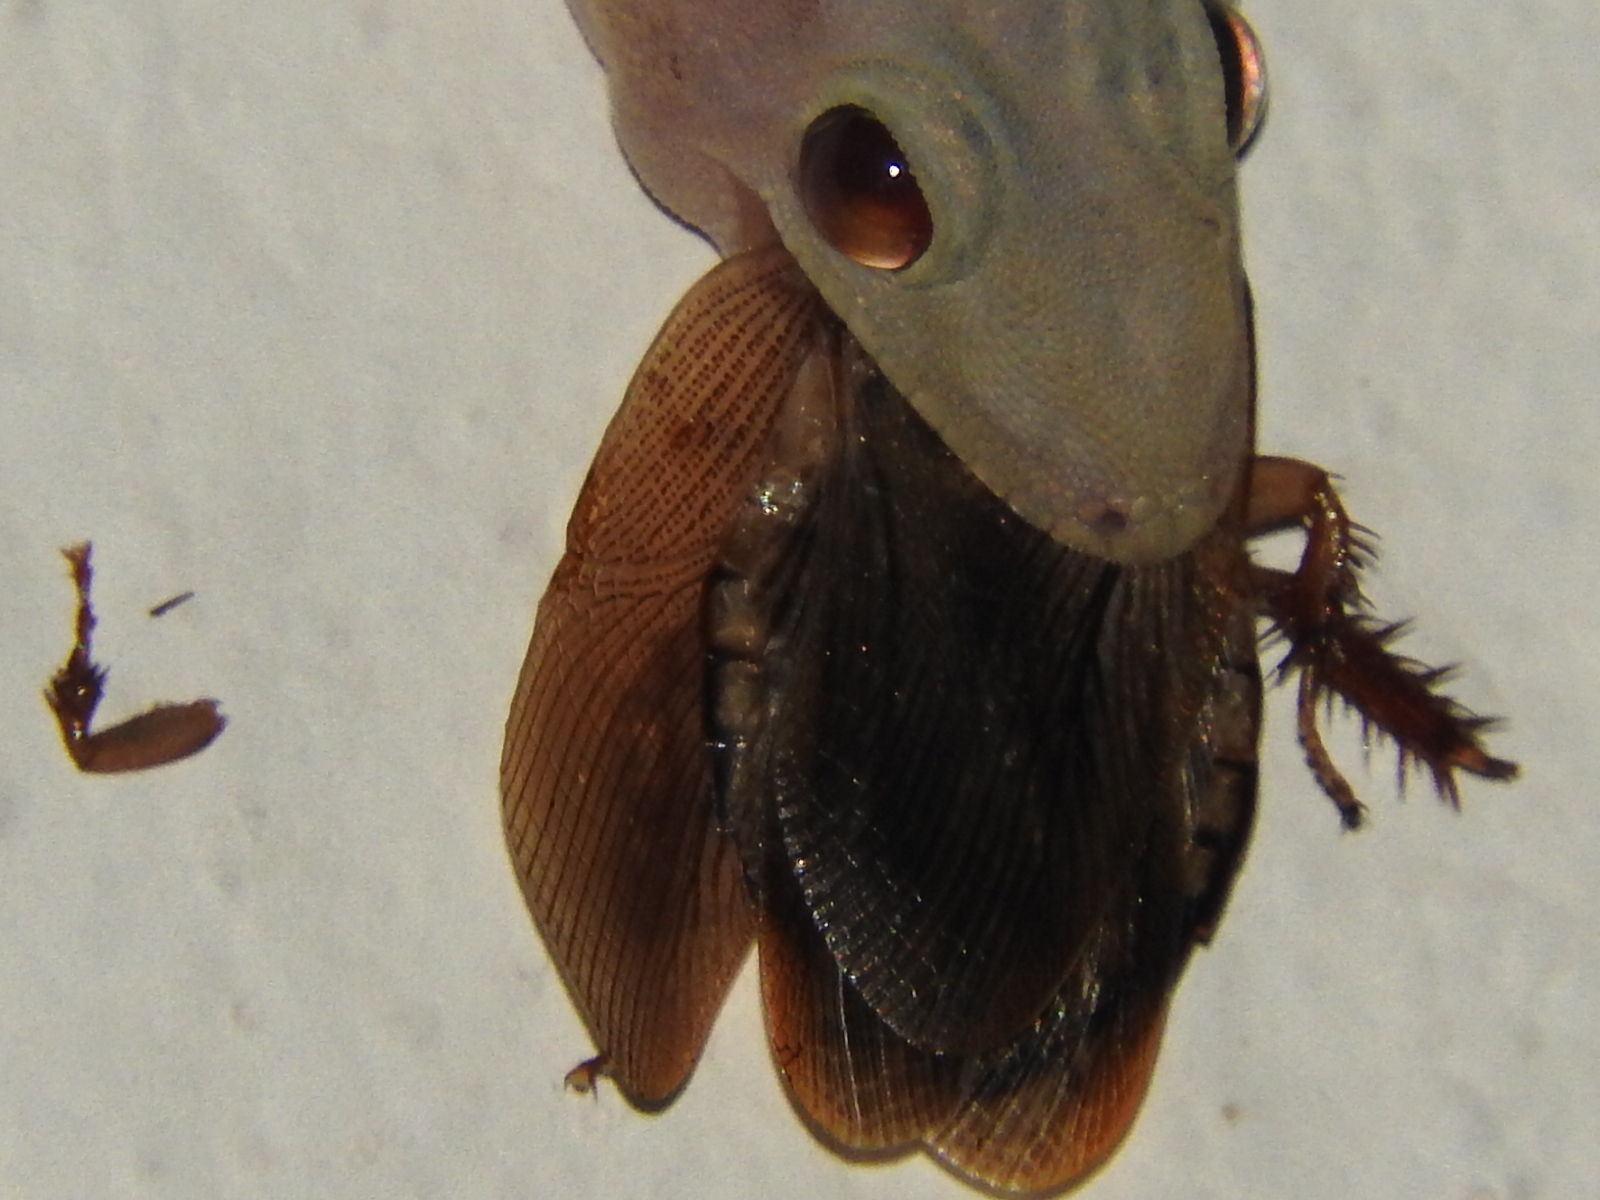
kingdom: Animalia
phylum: Arthropoda
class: Insecta
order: Blattodea
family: Blaberidae
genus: Pycnoscelus
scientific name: Pycnoscelus surinamensis
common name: Surinam cockroach
